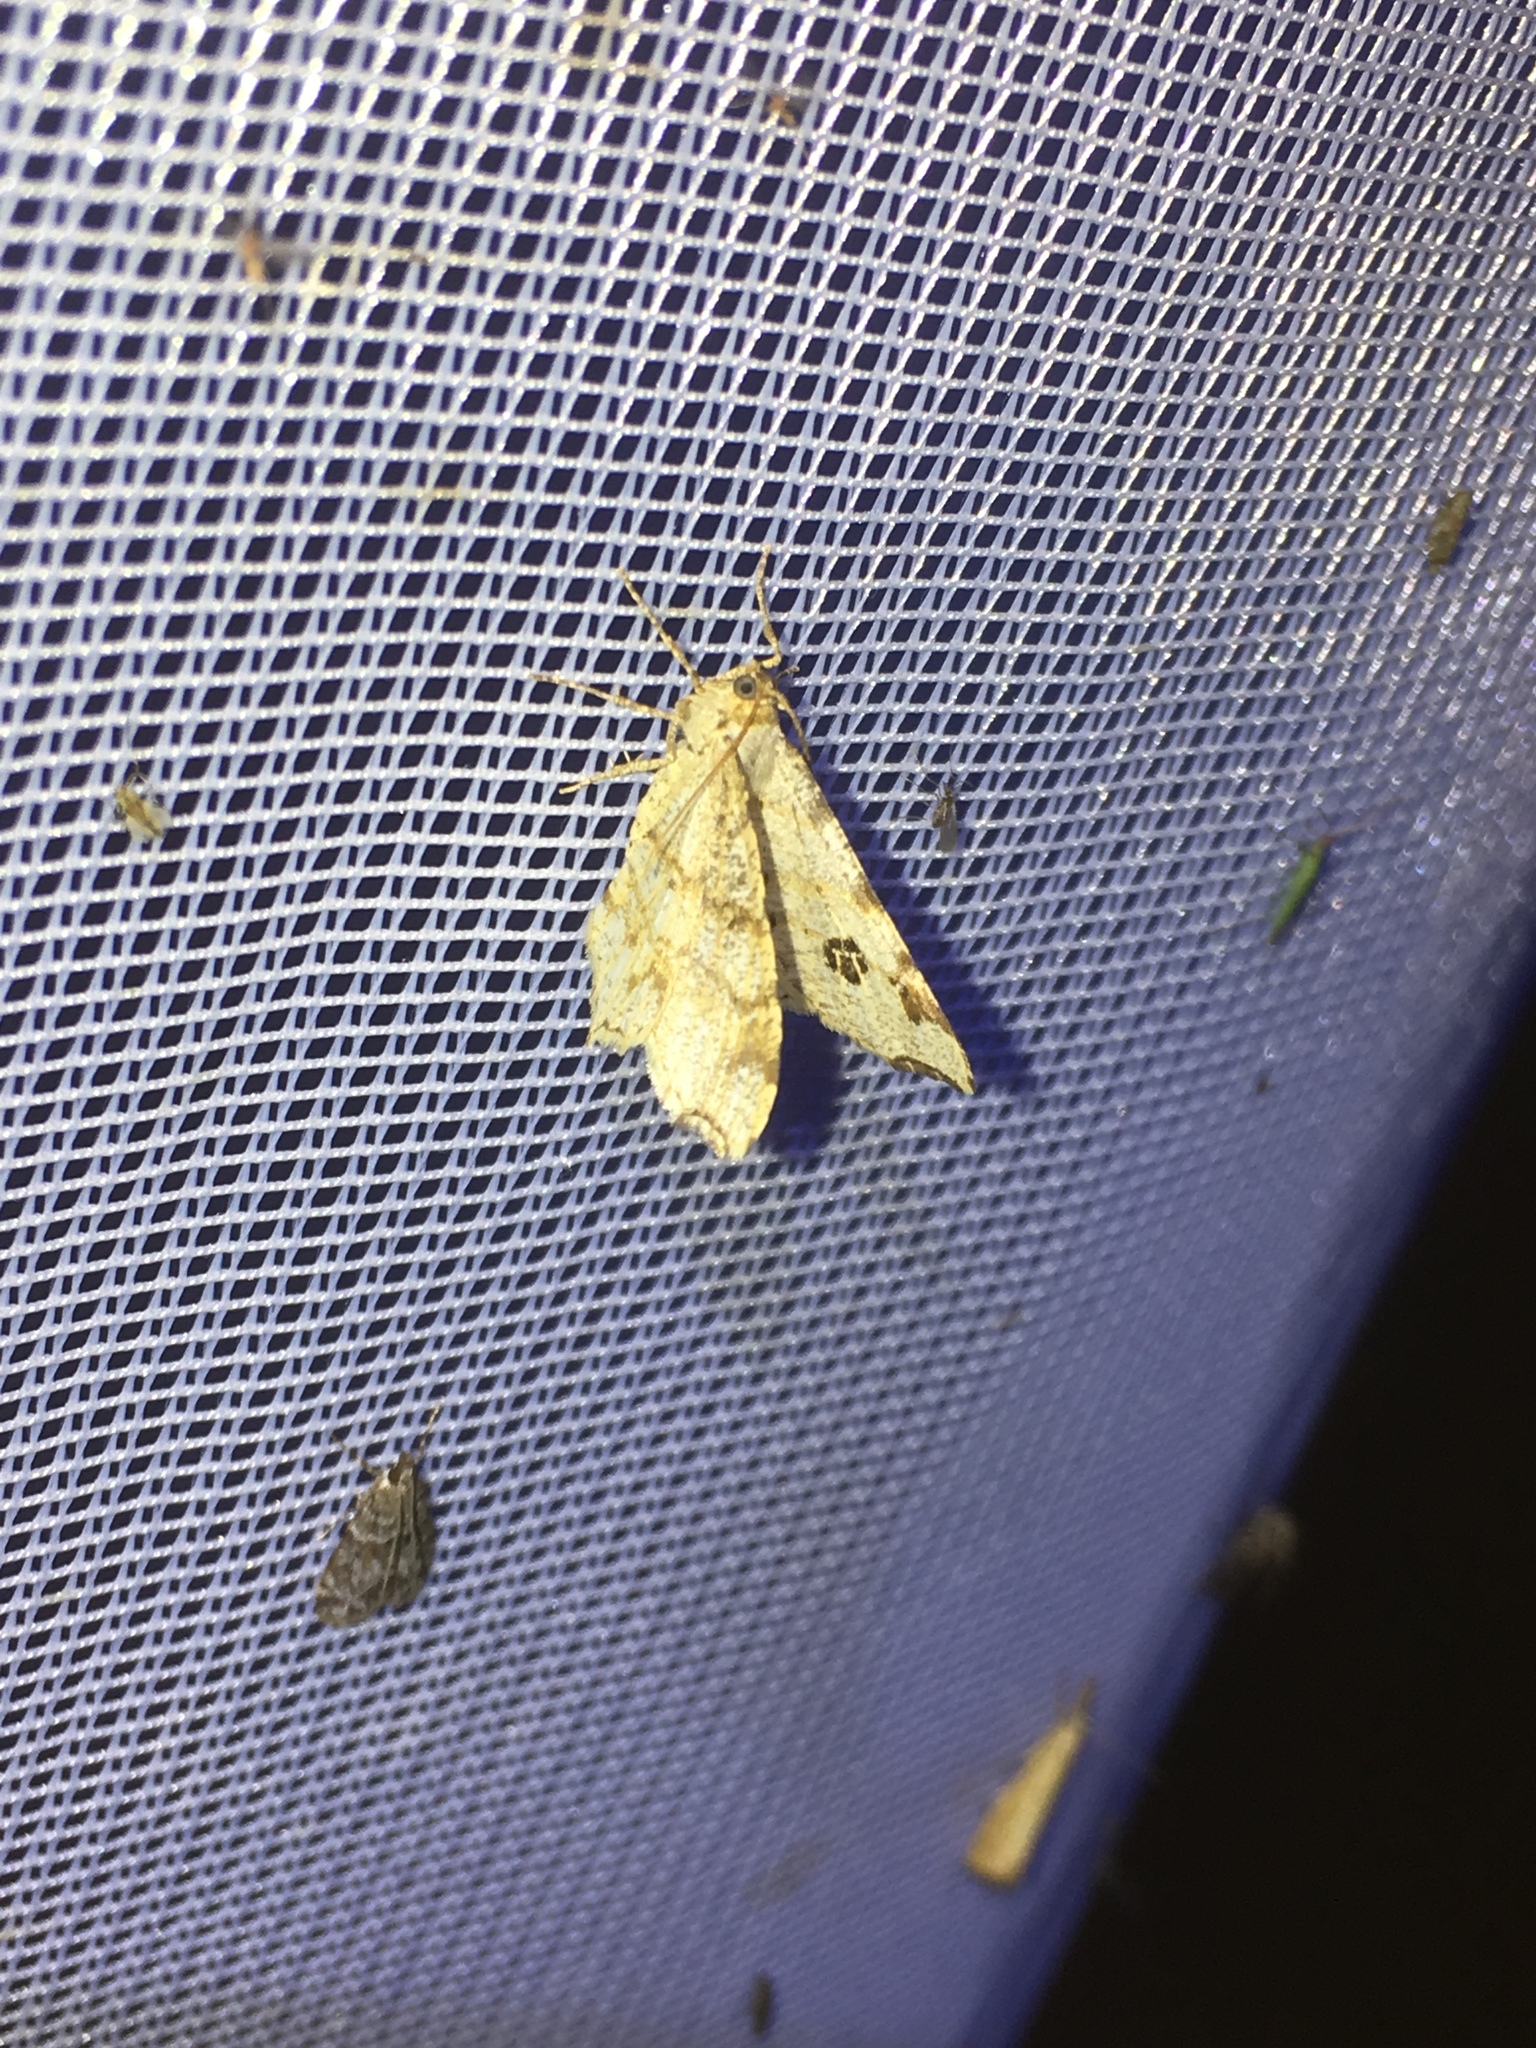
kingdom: Animalia
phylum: Arthropoda
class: Insecta
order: Lepidoptera
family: Geometridae
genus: Macaria
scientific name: Macaria notata
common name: Peacock moth
